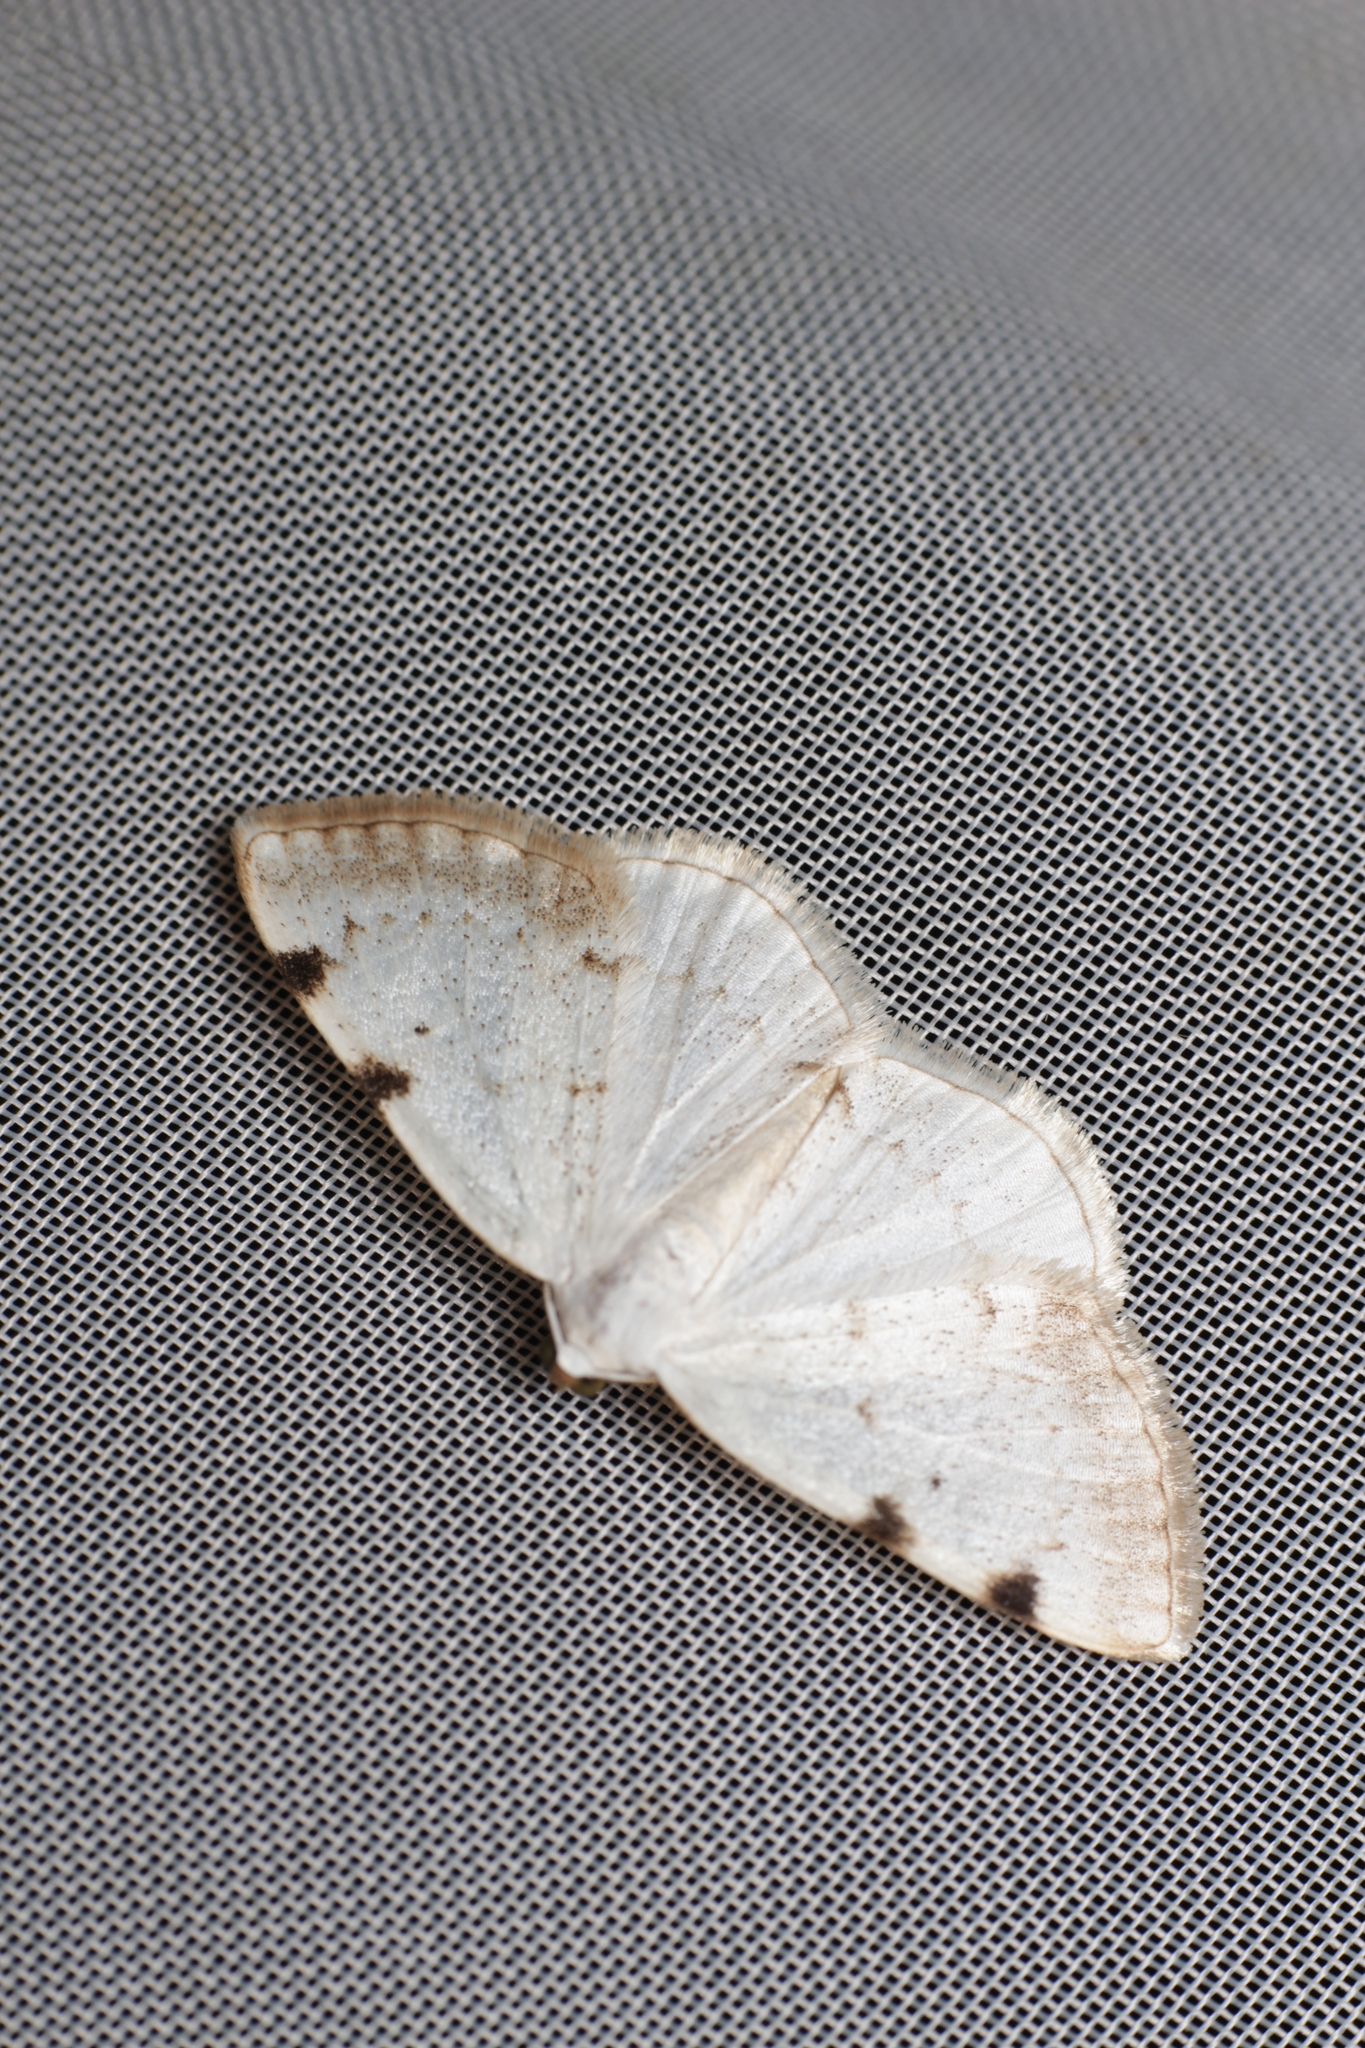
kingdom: Animalia
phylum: Arthropoda
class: Insecta
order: Lepidoptera
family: Geometridae
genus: Lomographa
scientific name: Lomographa bimaculata
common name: White-pinion spotted
